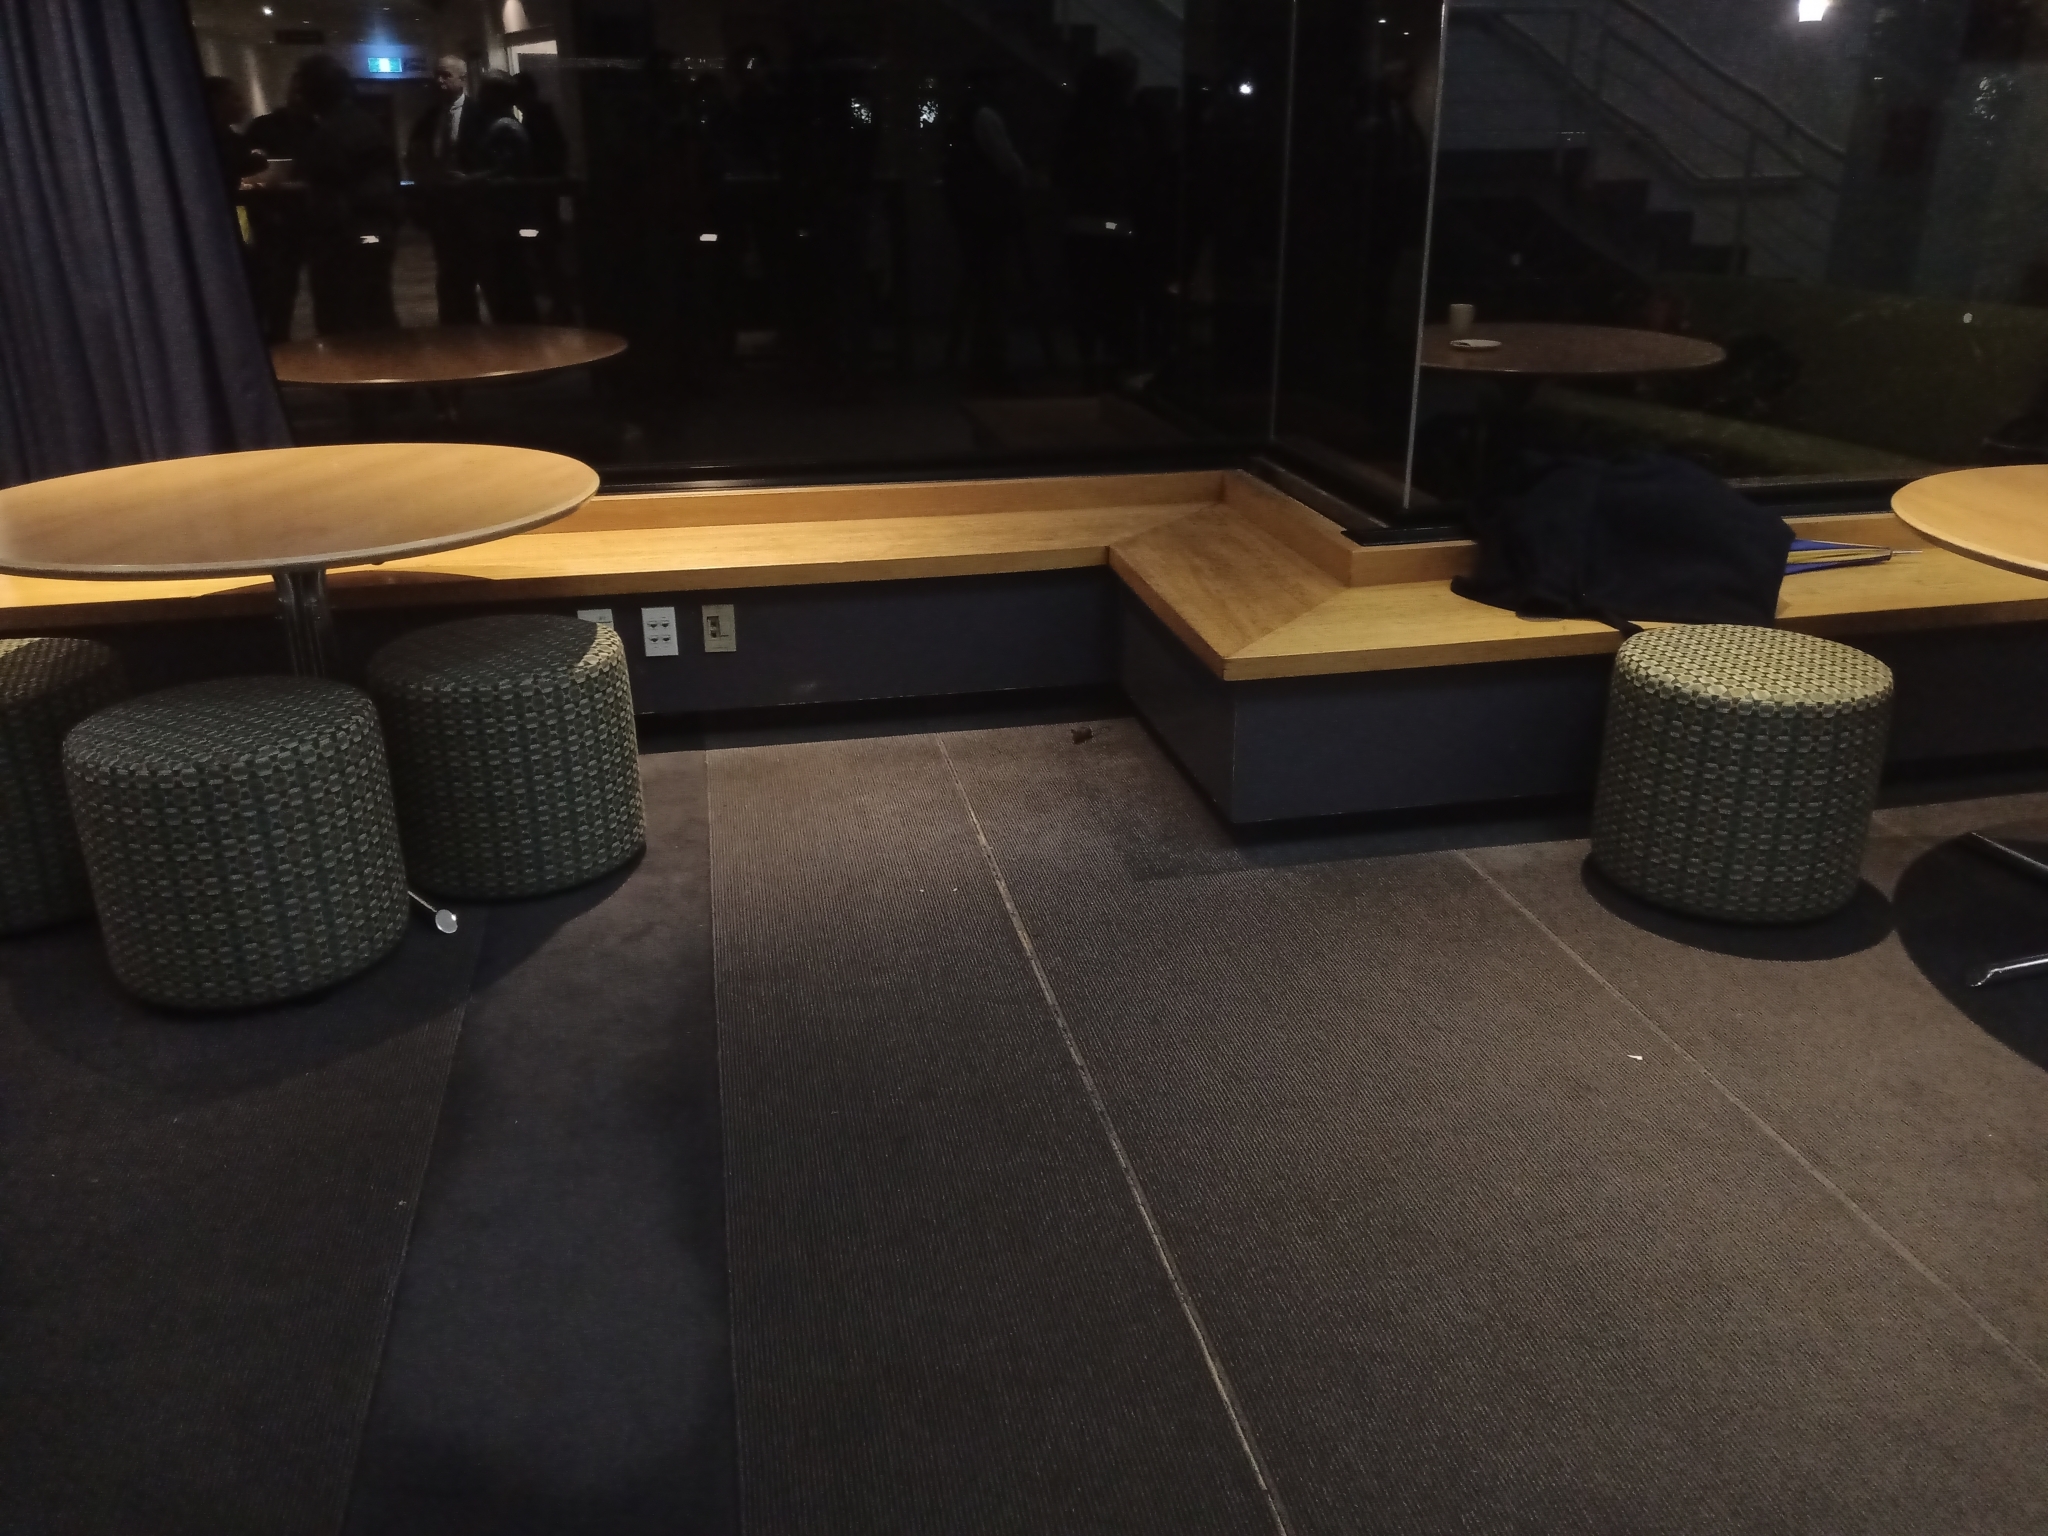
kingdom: Animalia
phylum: Chordata
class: Mammalia
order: Rodentia
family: Muridae
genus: Mus
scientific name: Mus musculus
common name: House mouse
